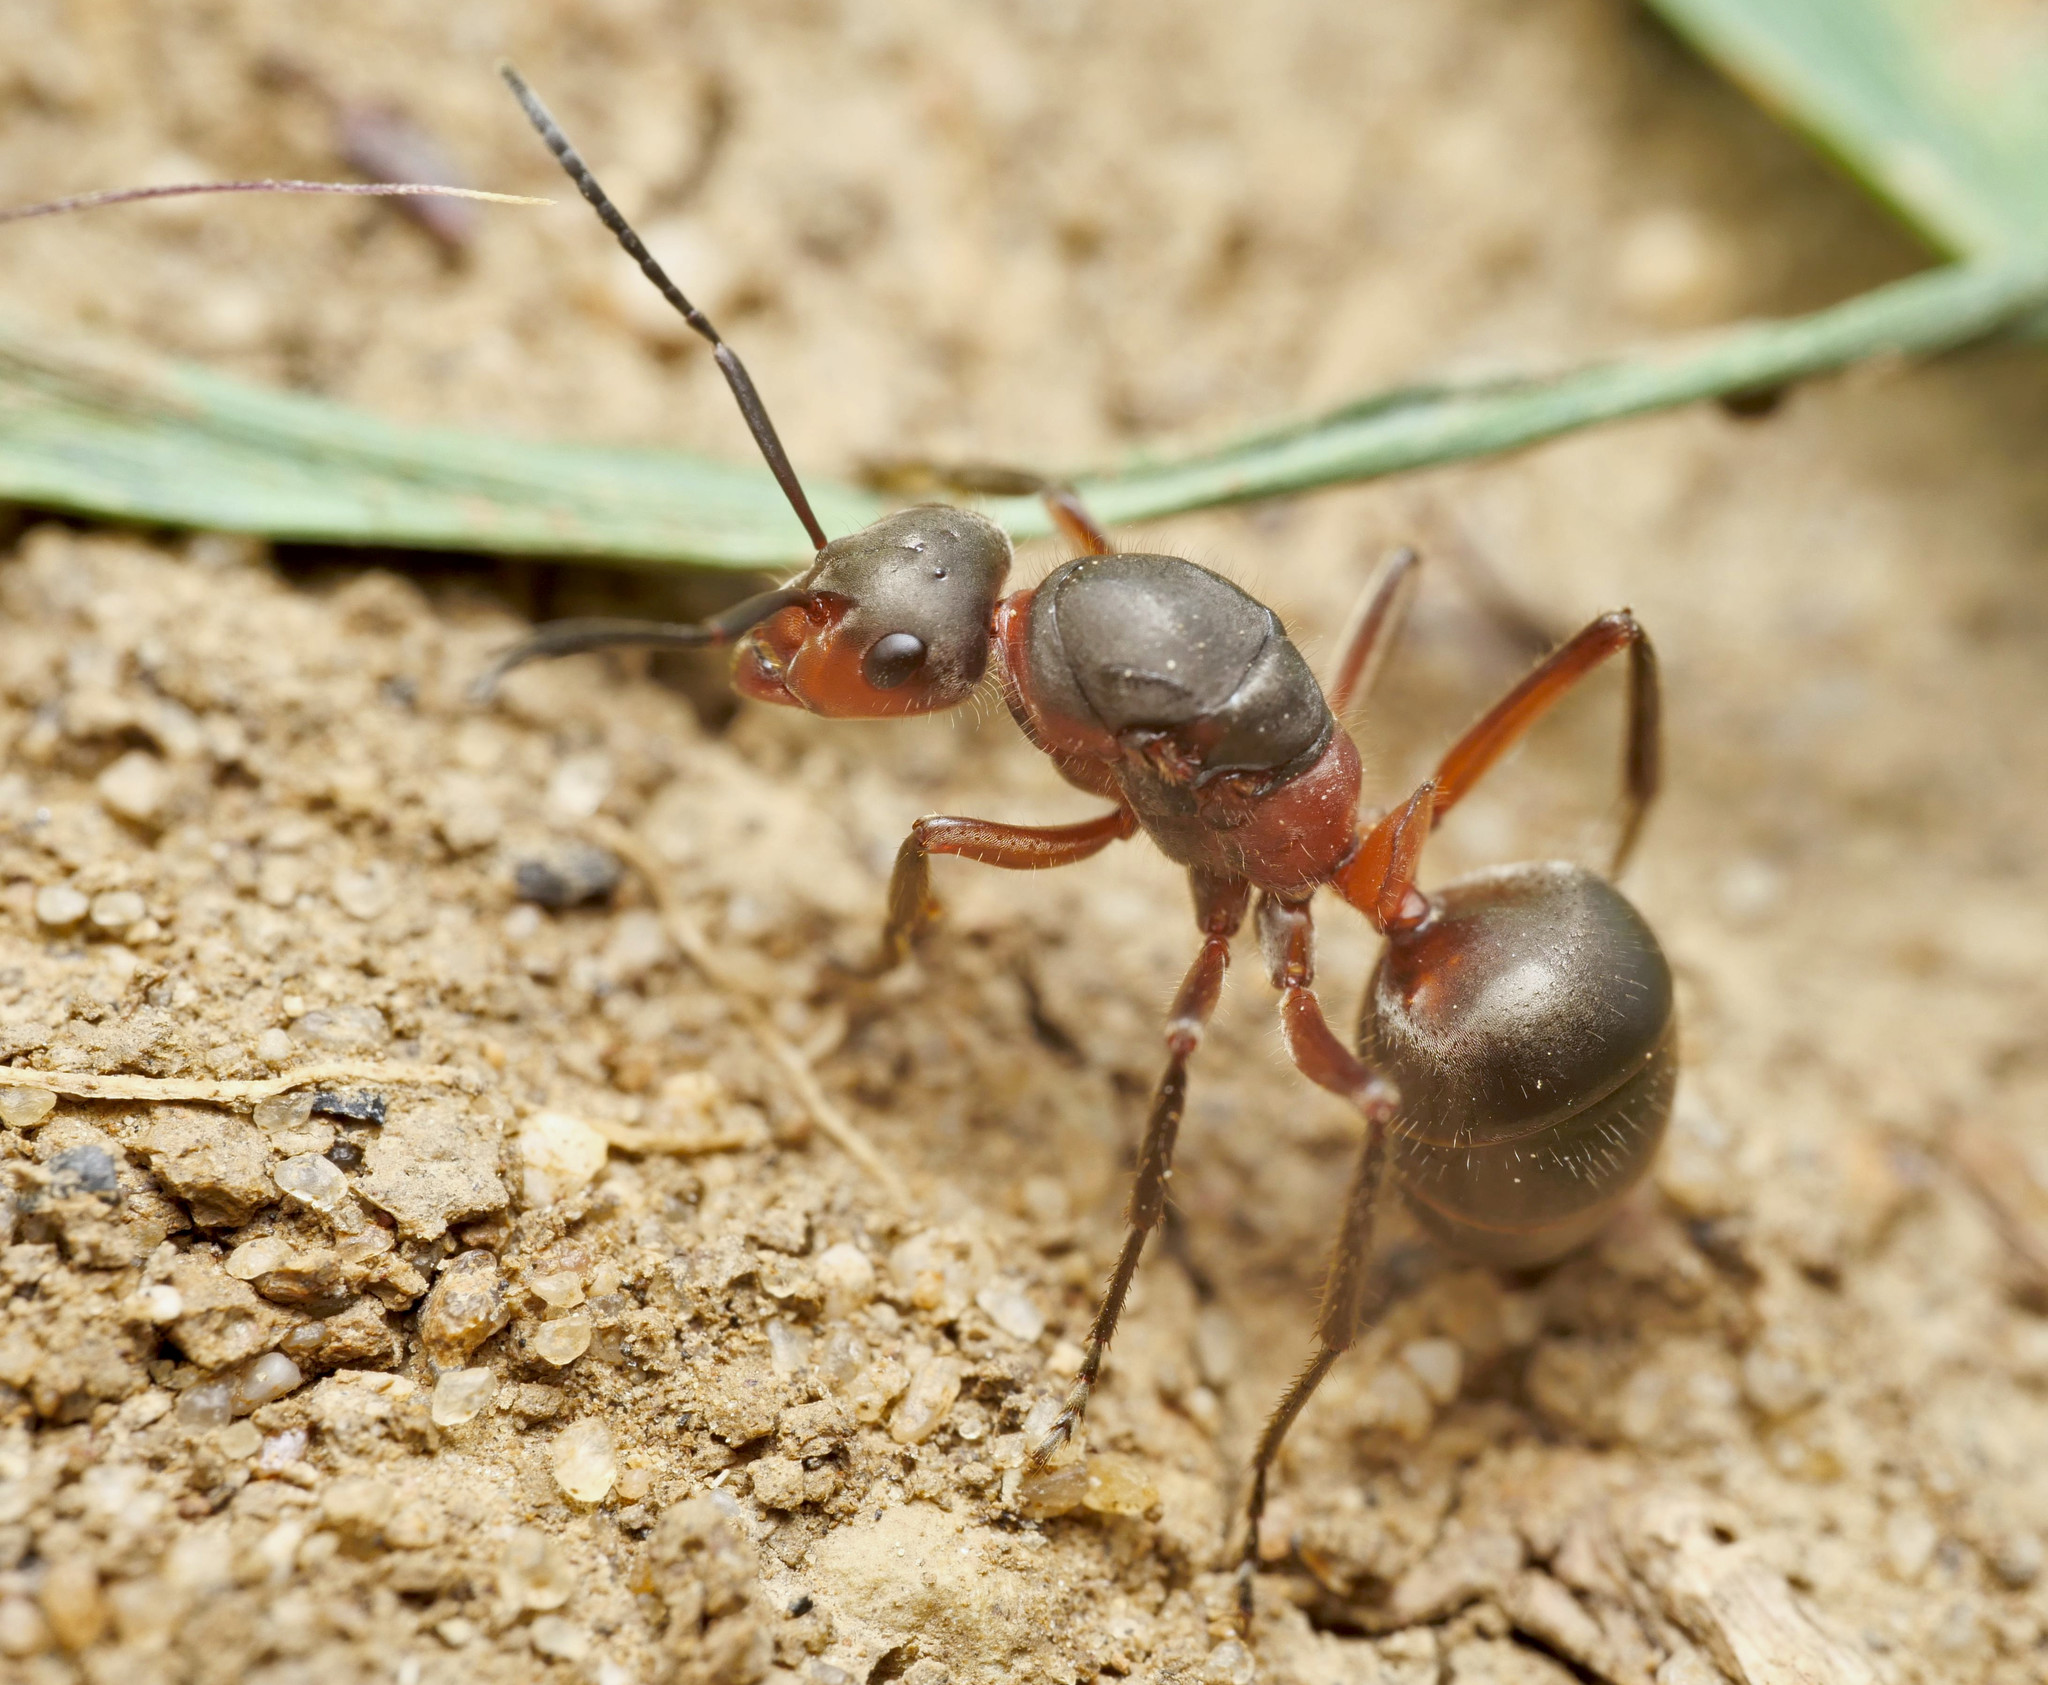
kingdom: Animalia
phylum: Arthropoda
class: Insecta
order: Hymenoptera
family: Formicidae
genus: Formica
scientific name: Formica pratensis
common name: European red wood ant
